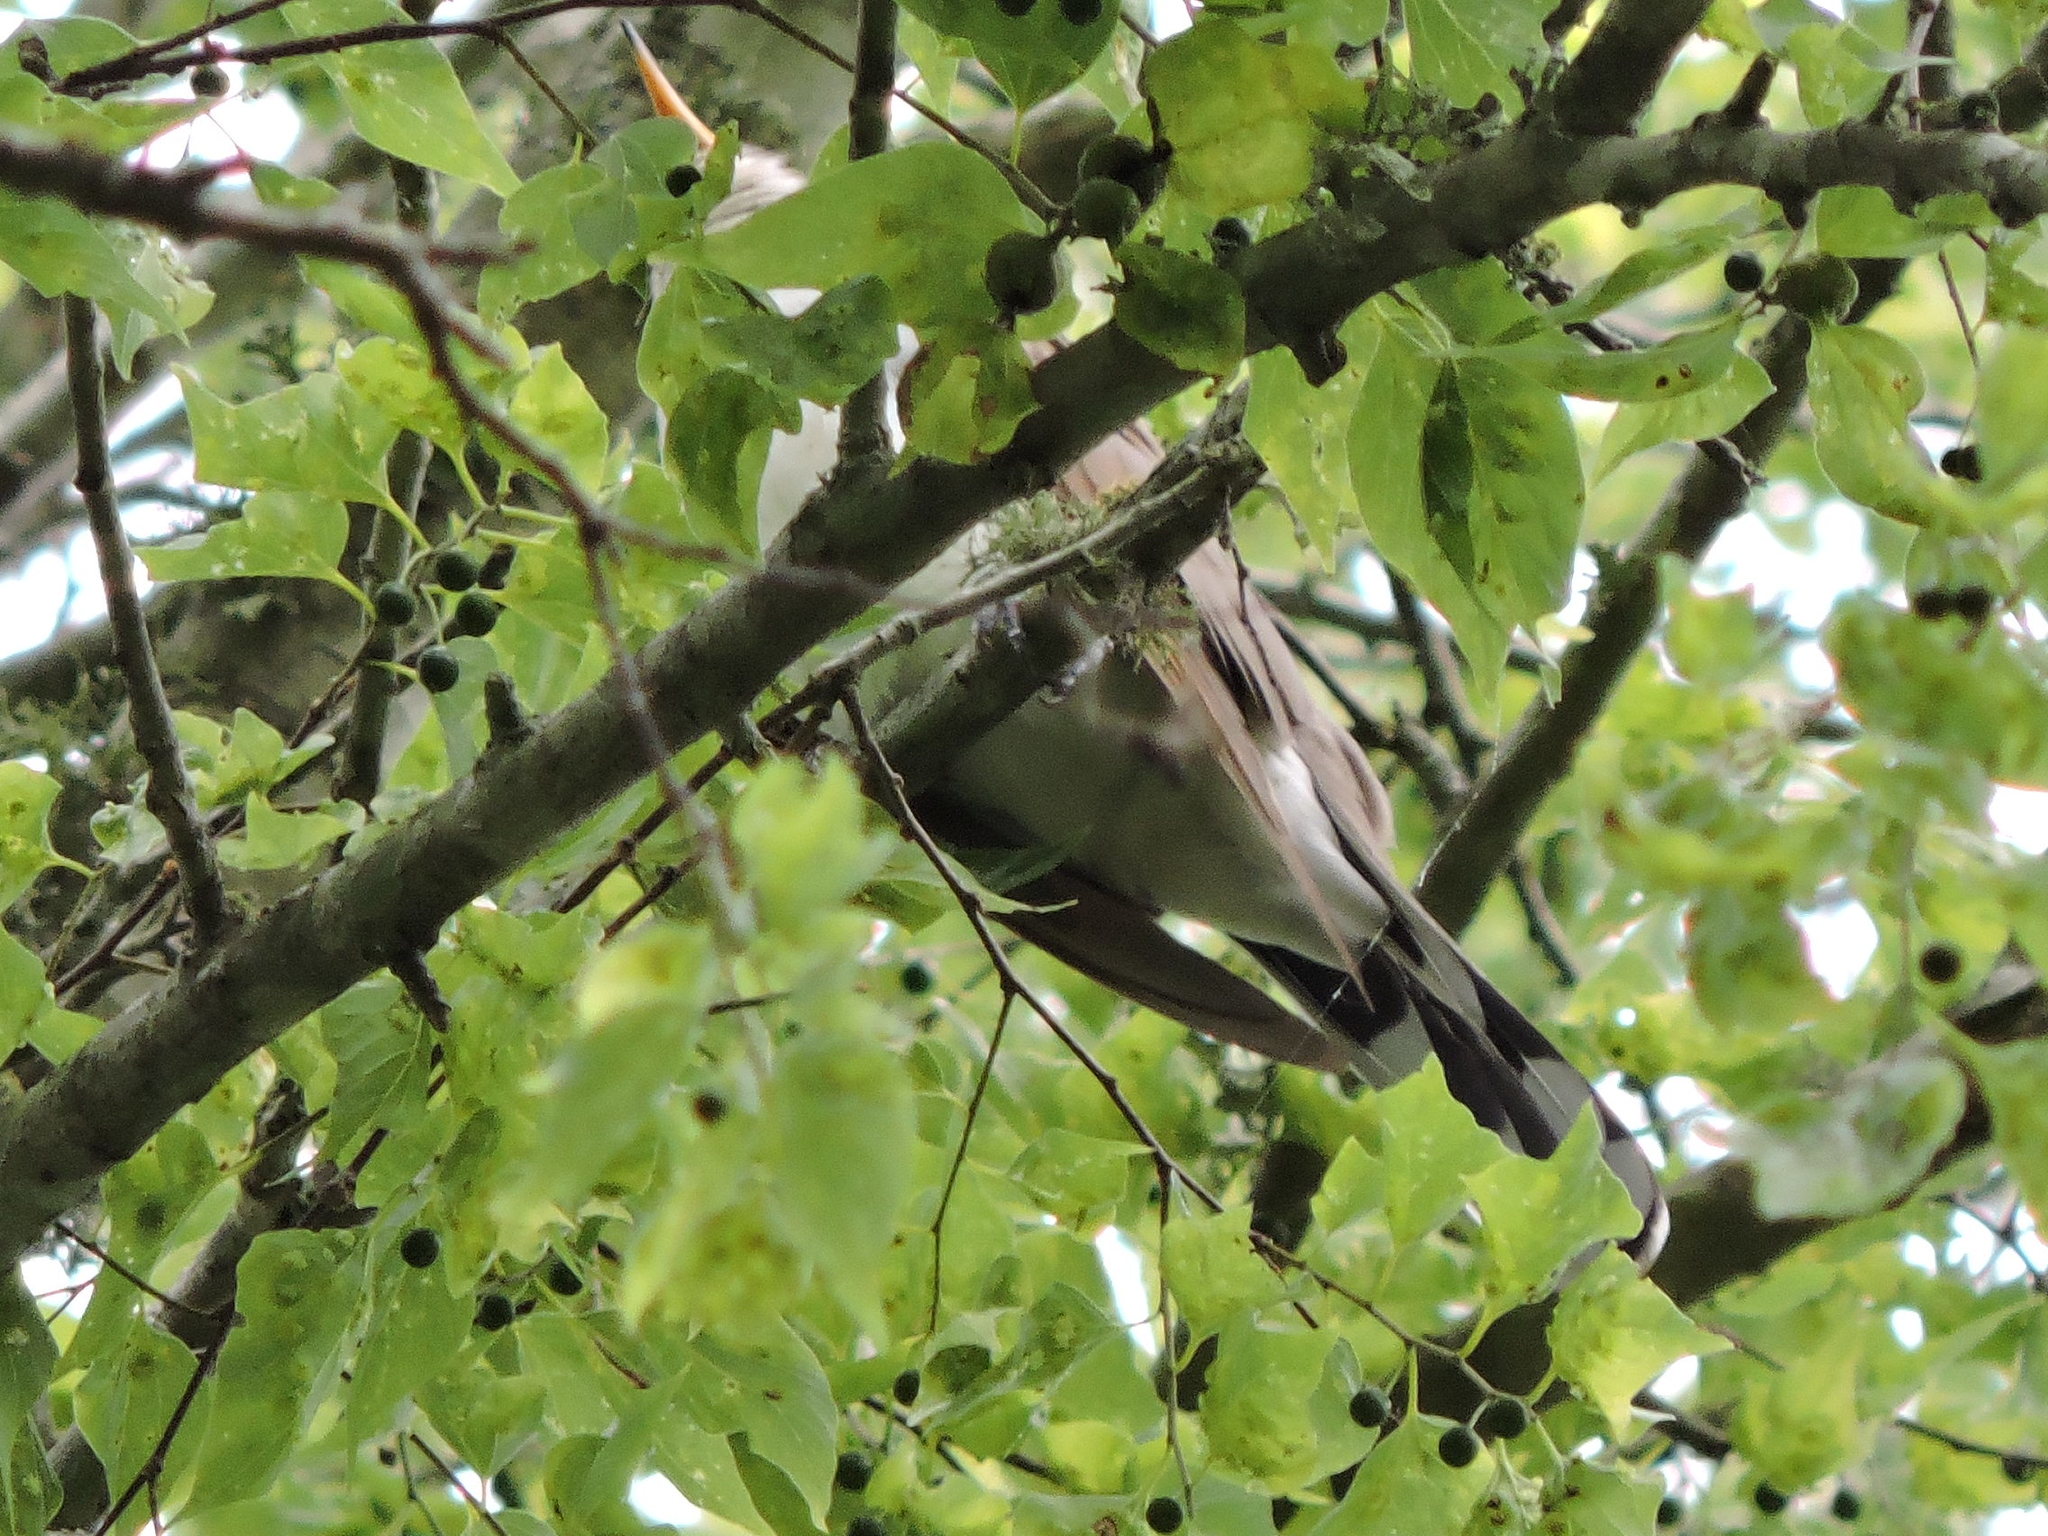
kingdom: Animalia
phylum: Chordata
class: Aves
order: Cuculiformes
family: Cuculidae
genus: Coccyzus
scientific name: Coccyzus americanus
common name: Yellow-billed cuckoo
